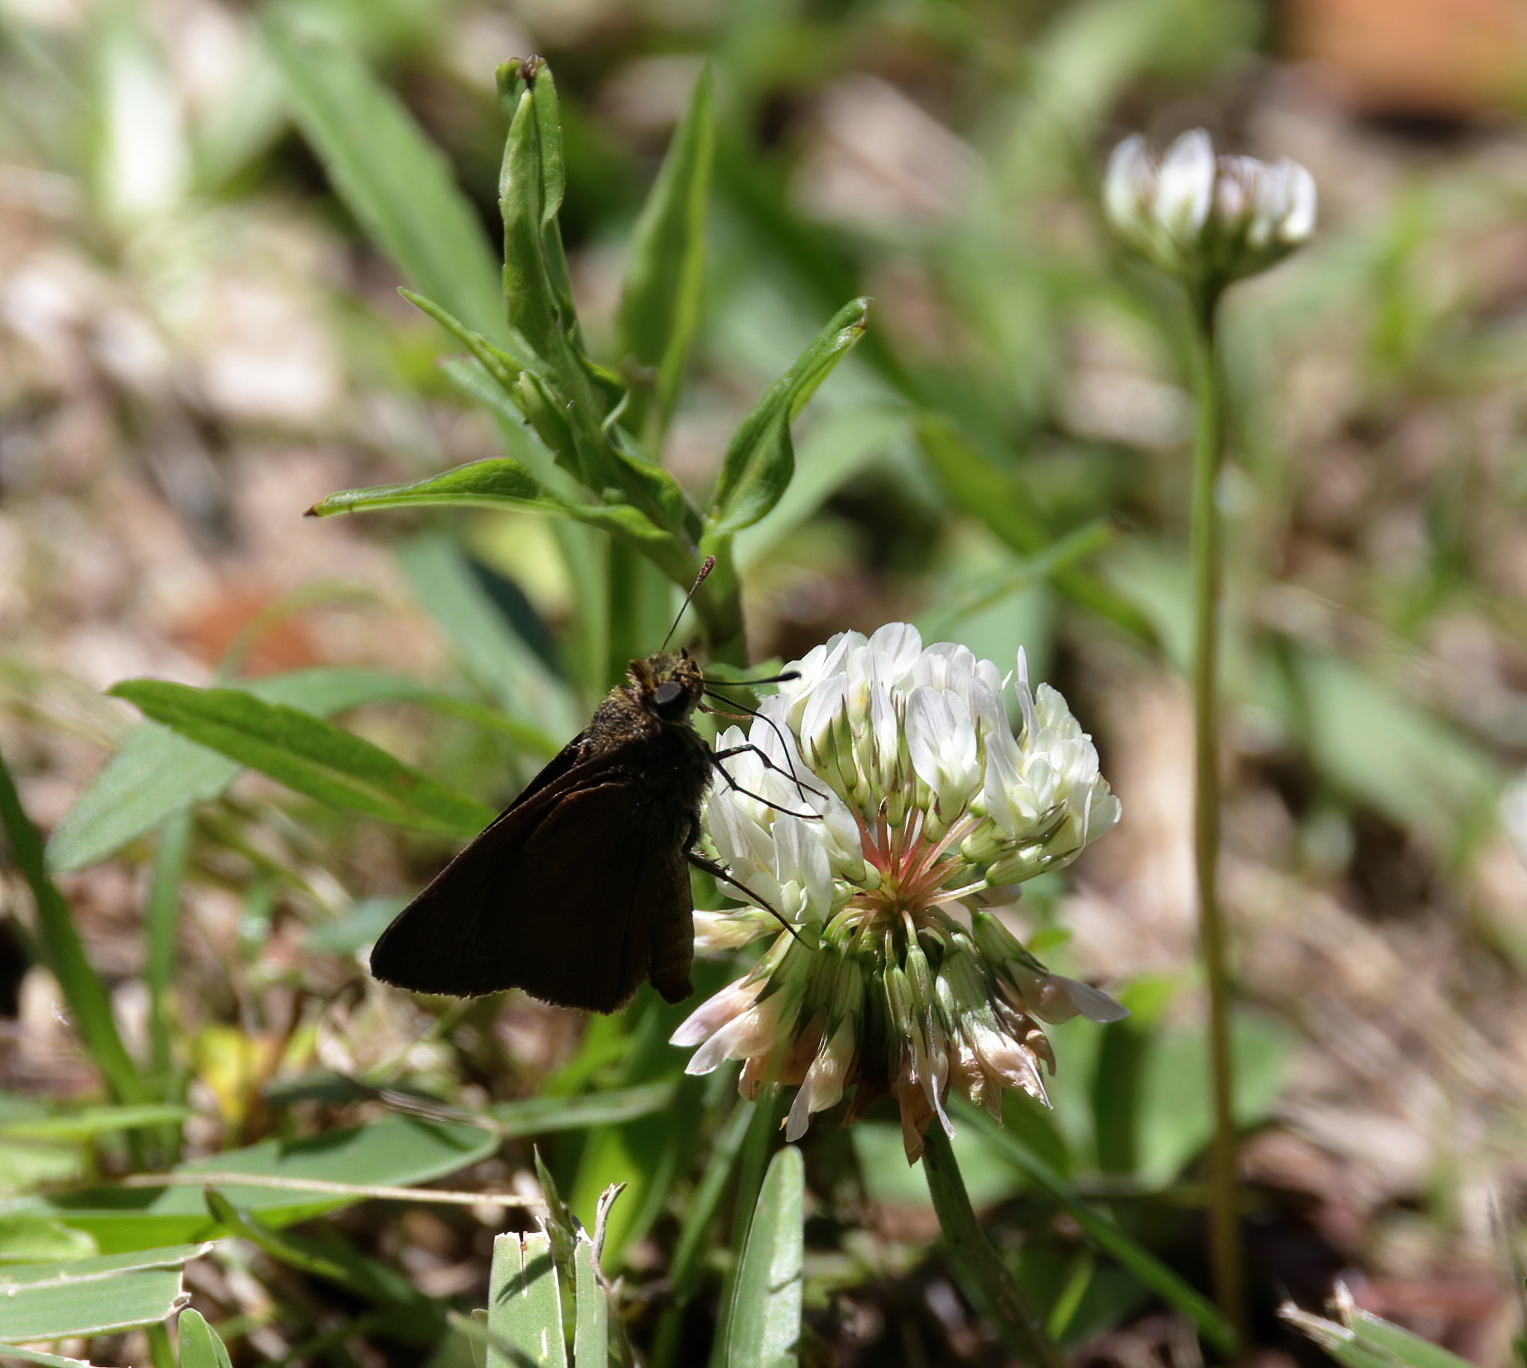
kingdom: Animalia
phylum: Arthropoda
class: Insecta
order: Lepidoptera
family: Hesperiidae
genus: Euphyes
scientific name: Euphyes vestris
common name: Dun skipper
